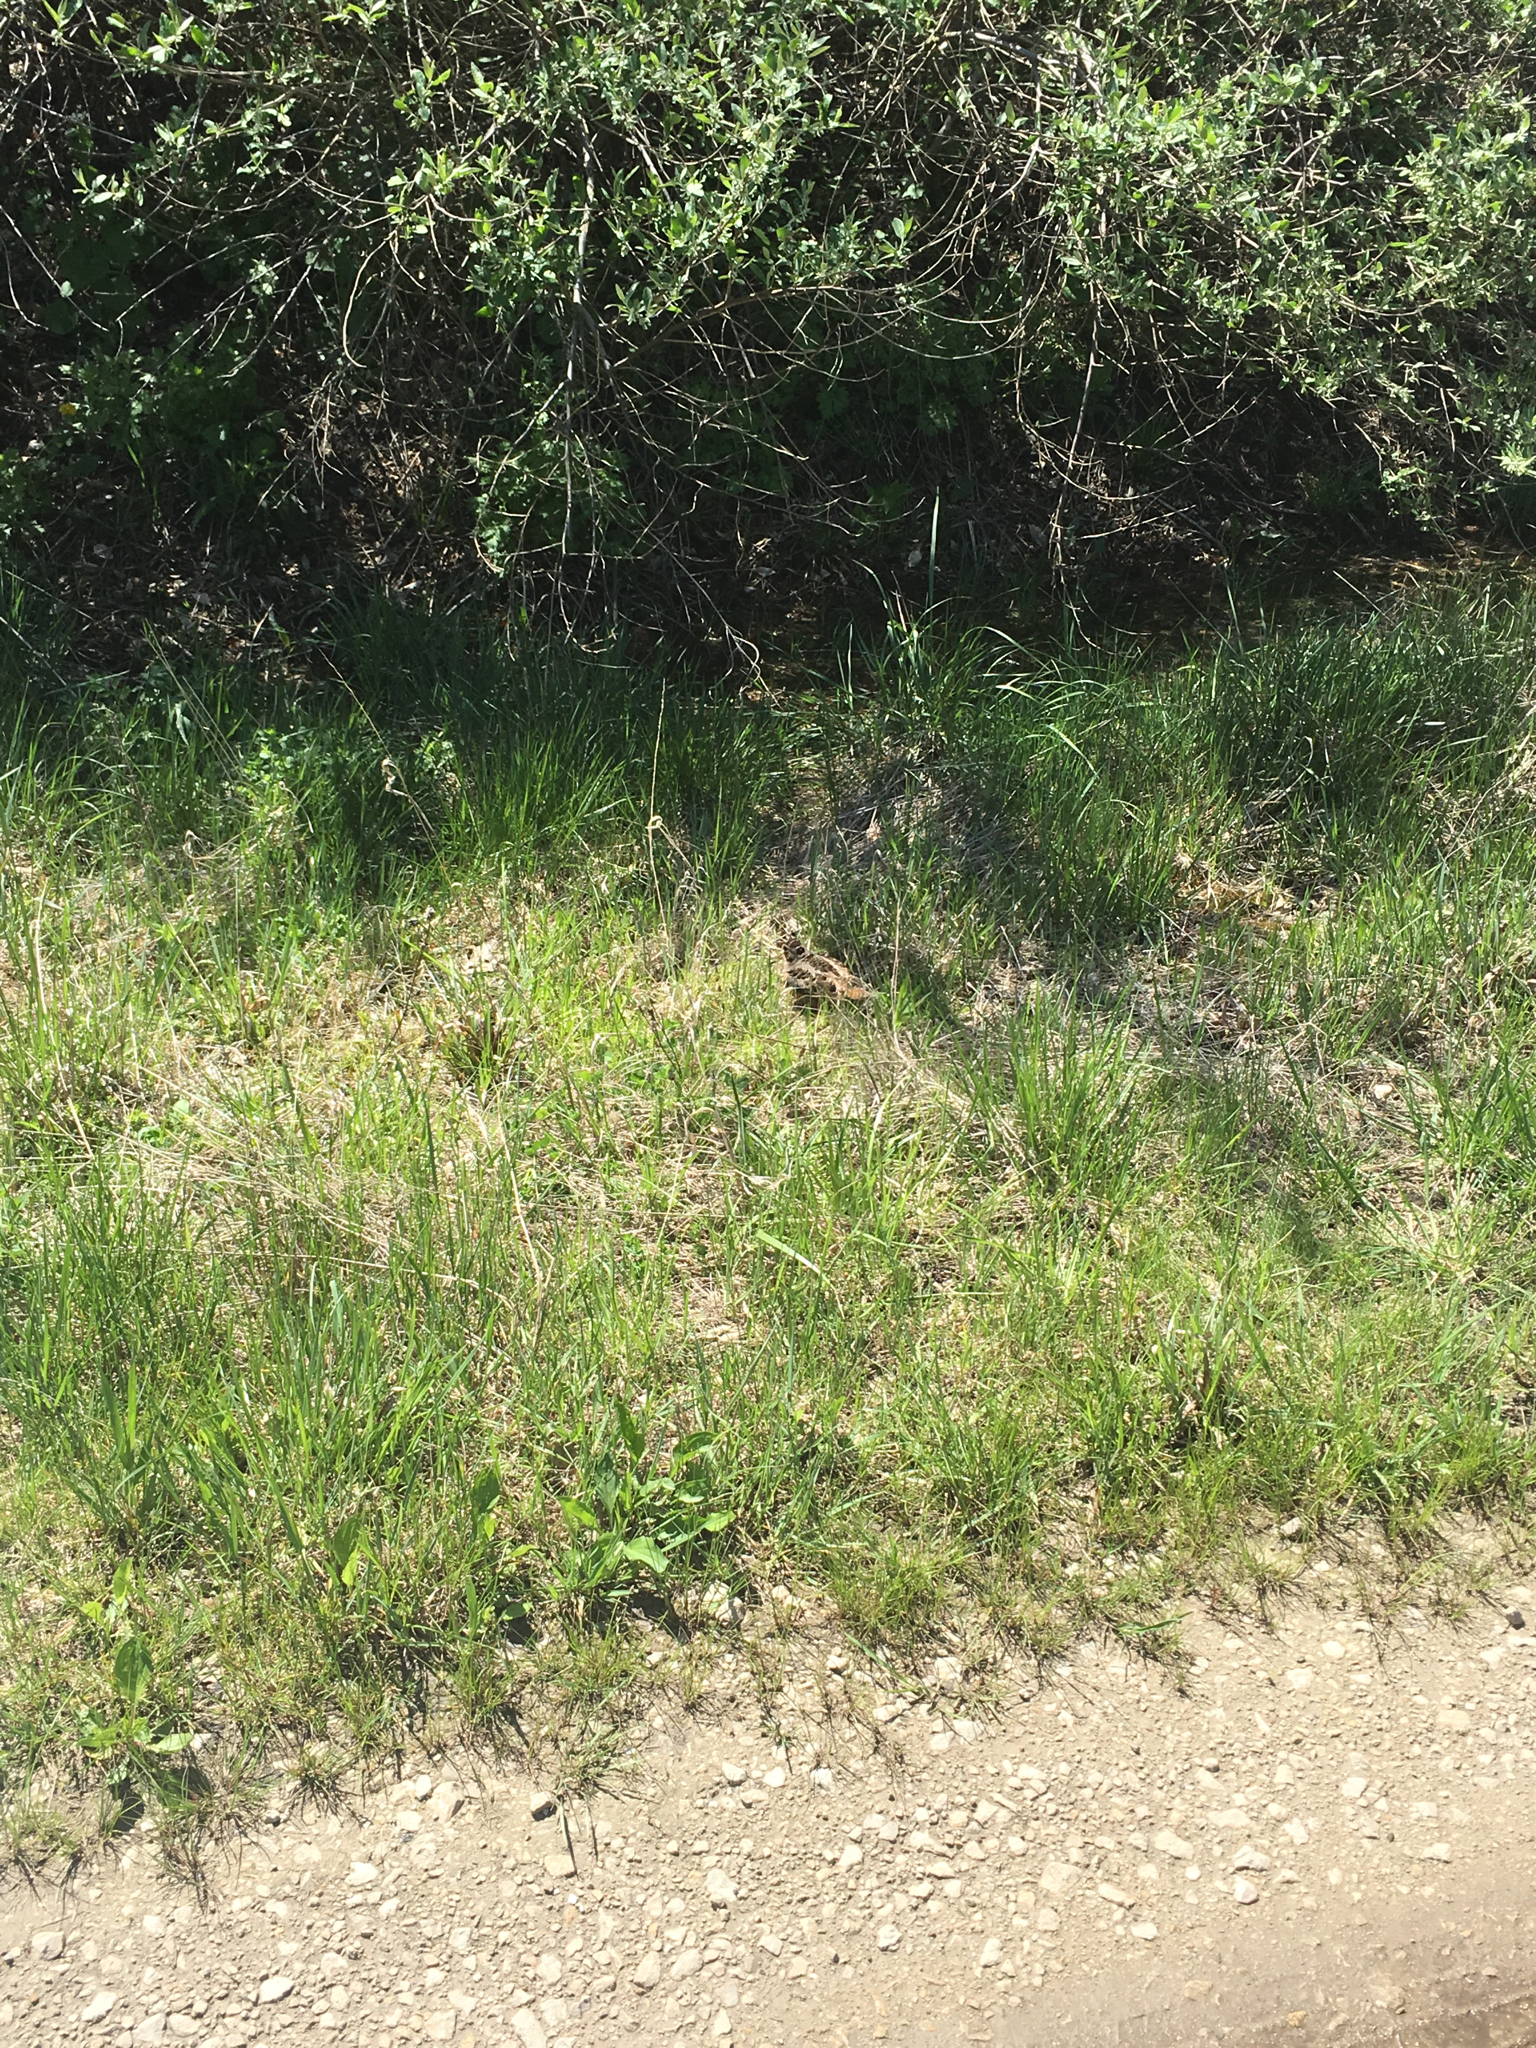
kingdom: Animalia
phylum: Chordata
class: Aves
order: Charadriiformes
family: Scolopacidae
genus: Scolopax
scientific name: Scolopax minor
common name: American woodcock
